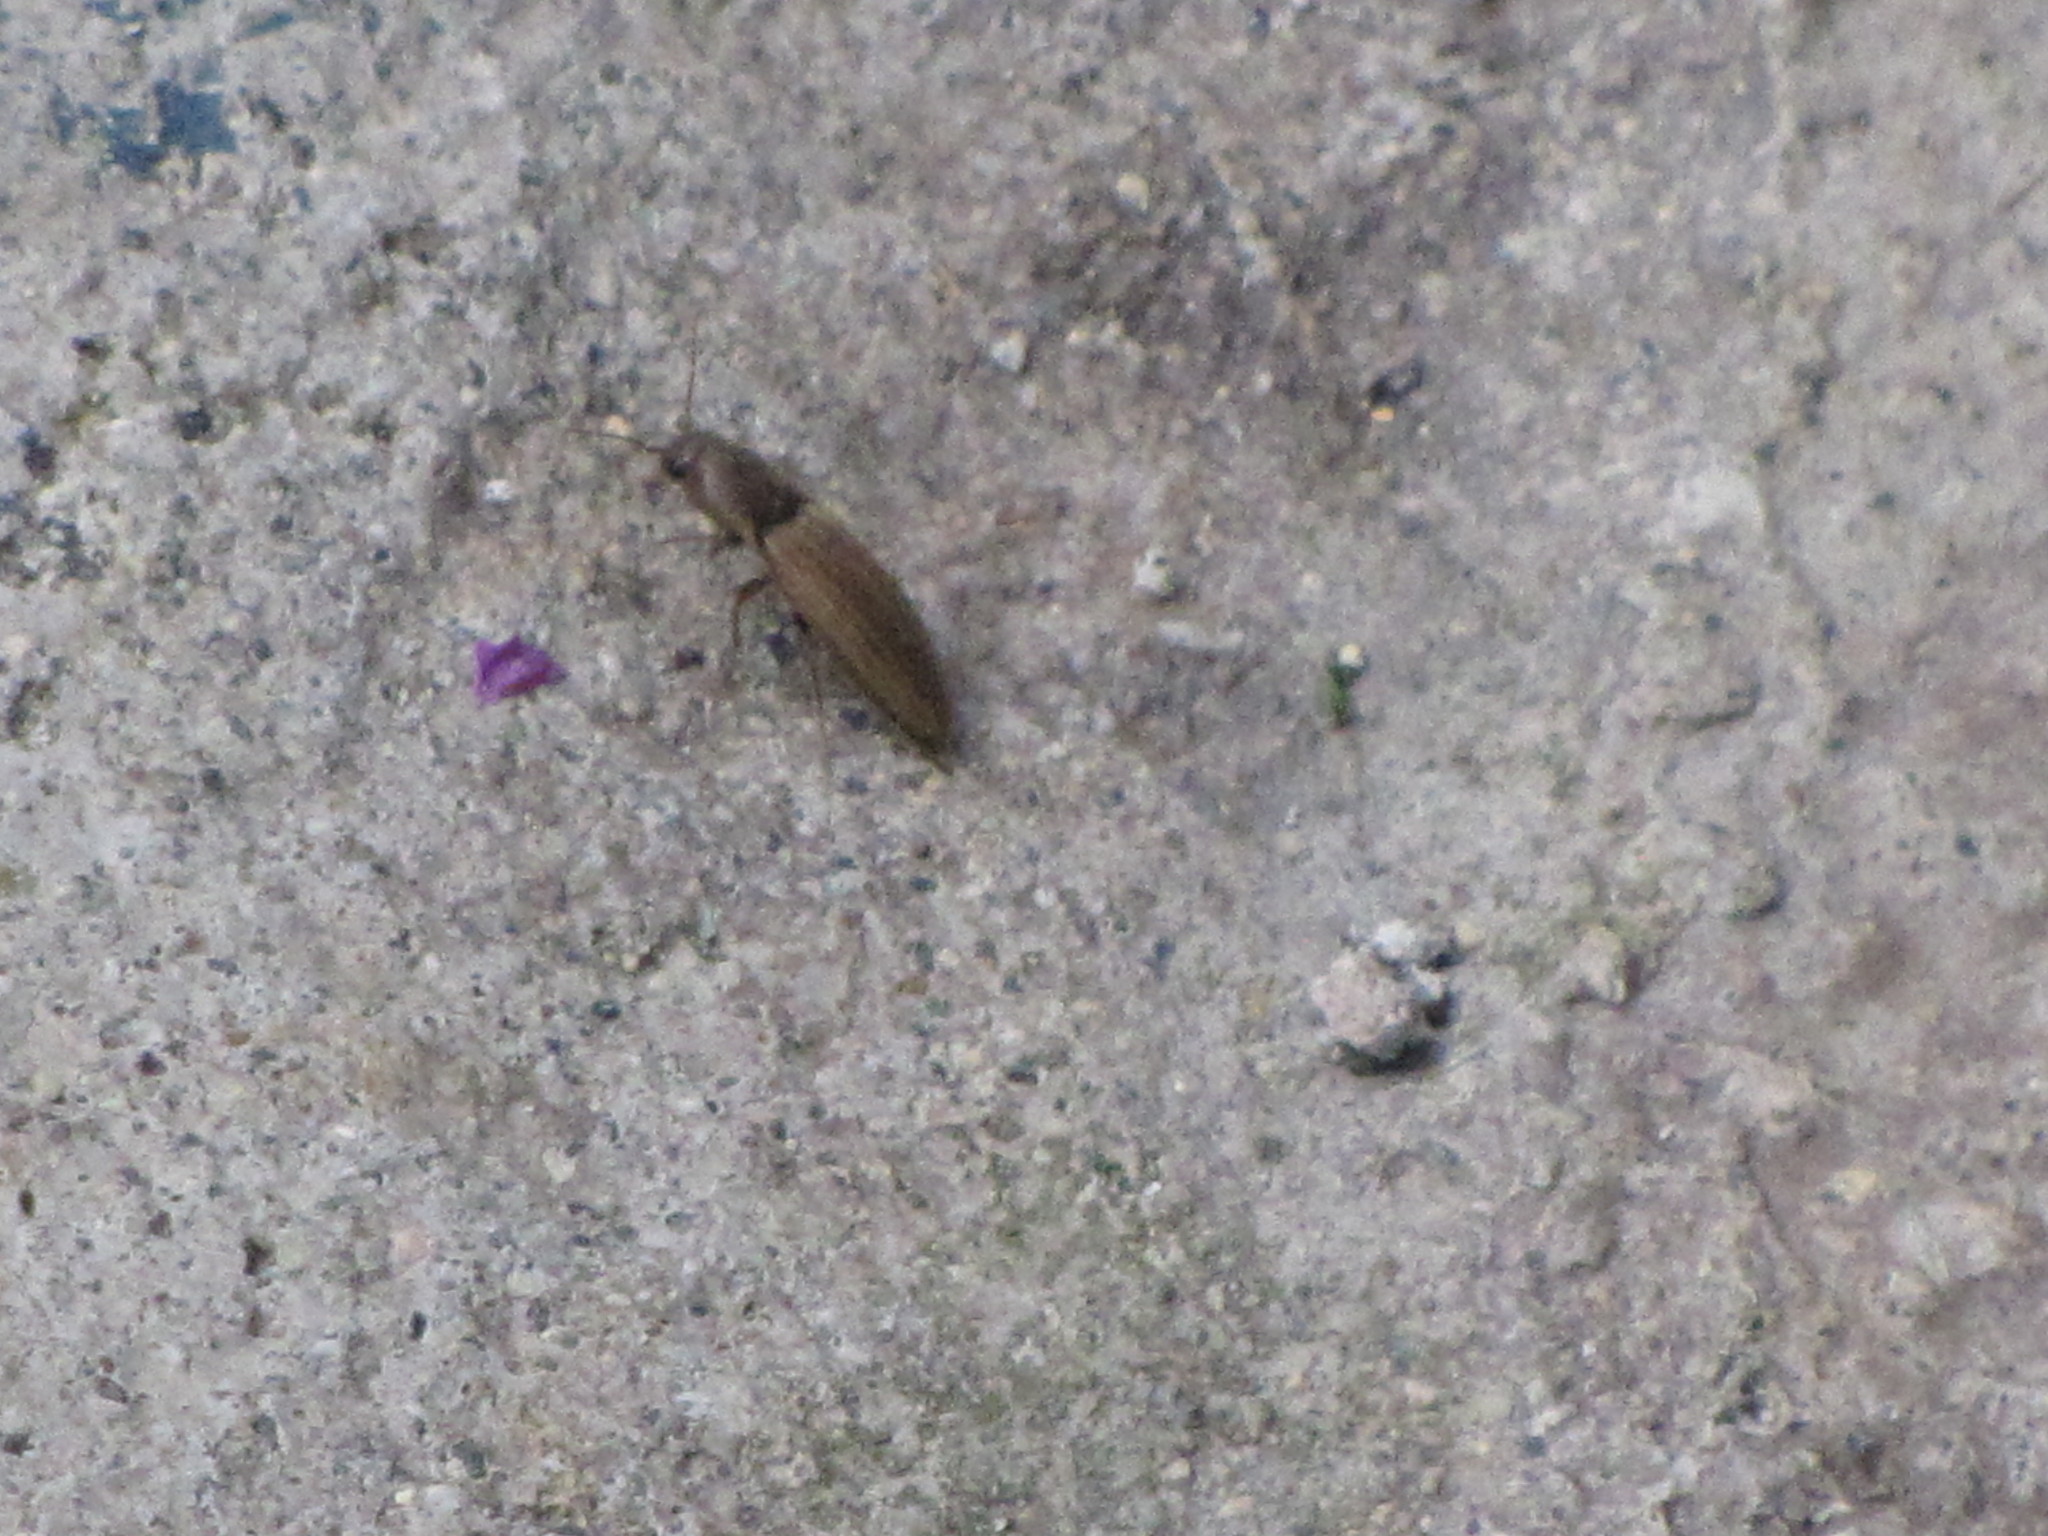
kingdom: Animalia
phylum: Arthropoda
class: Insecta
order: Coleoptera
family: Elateridae
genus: Agriotes
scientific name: Agriotes lineatus
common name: Lined click beetle
